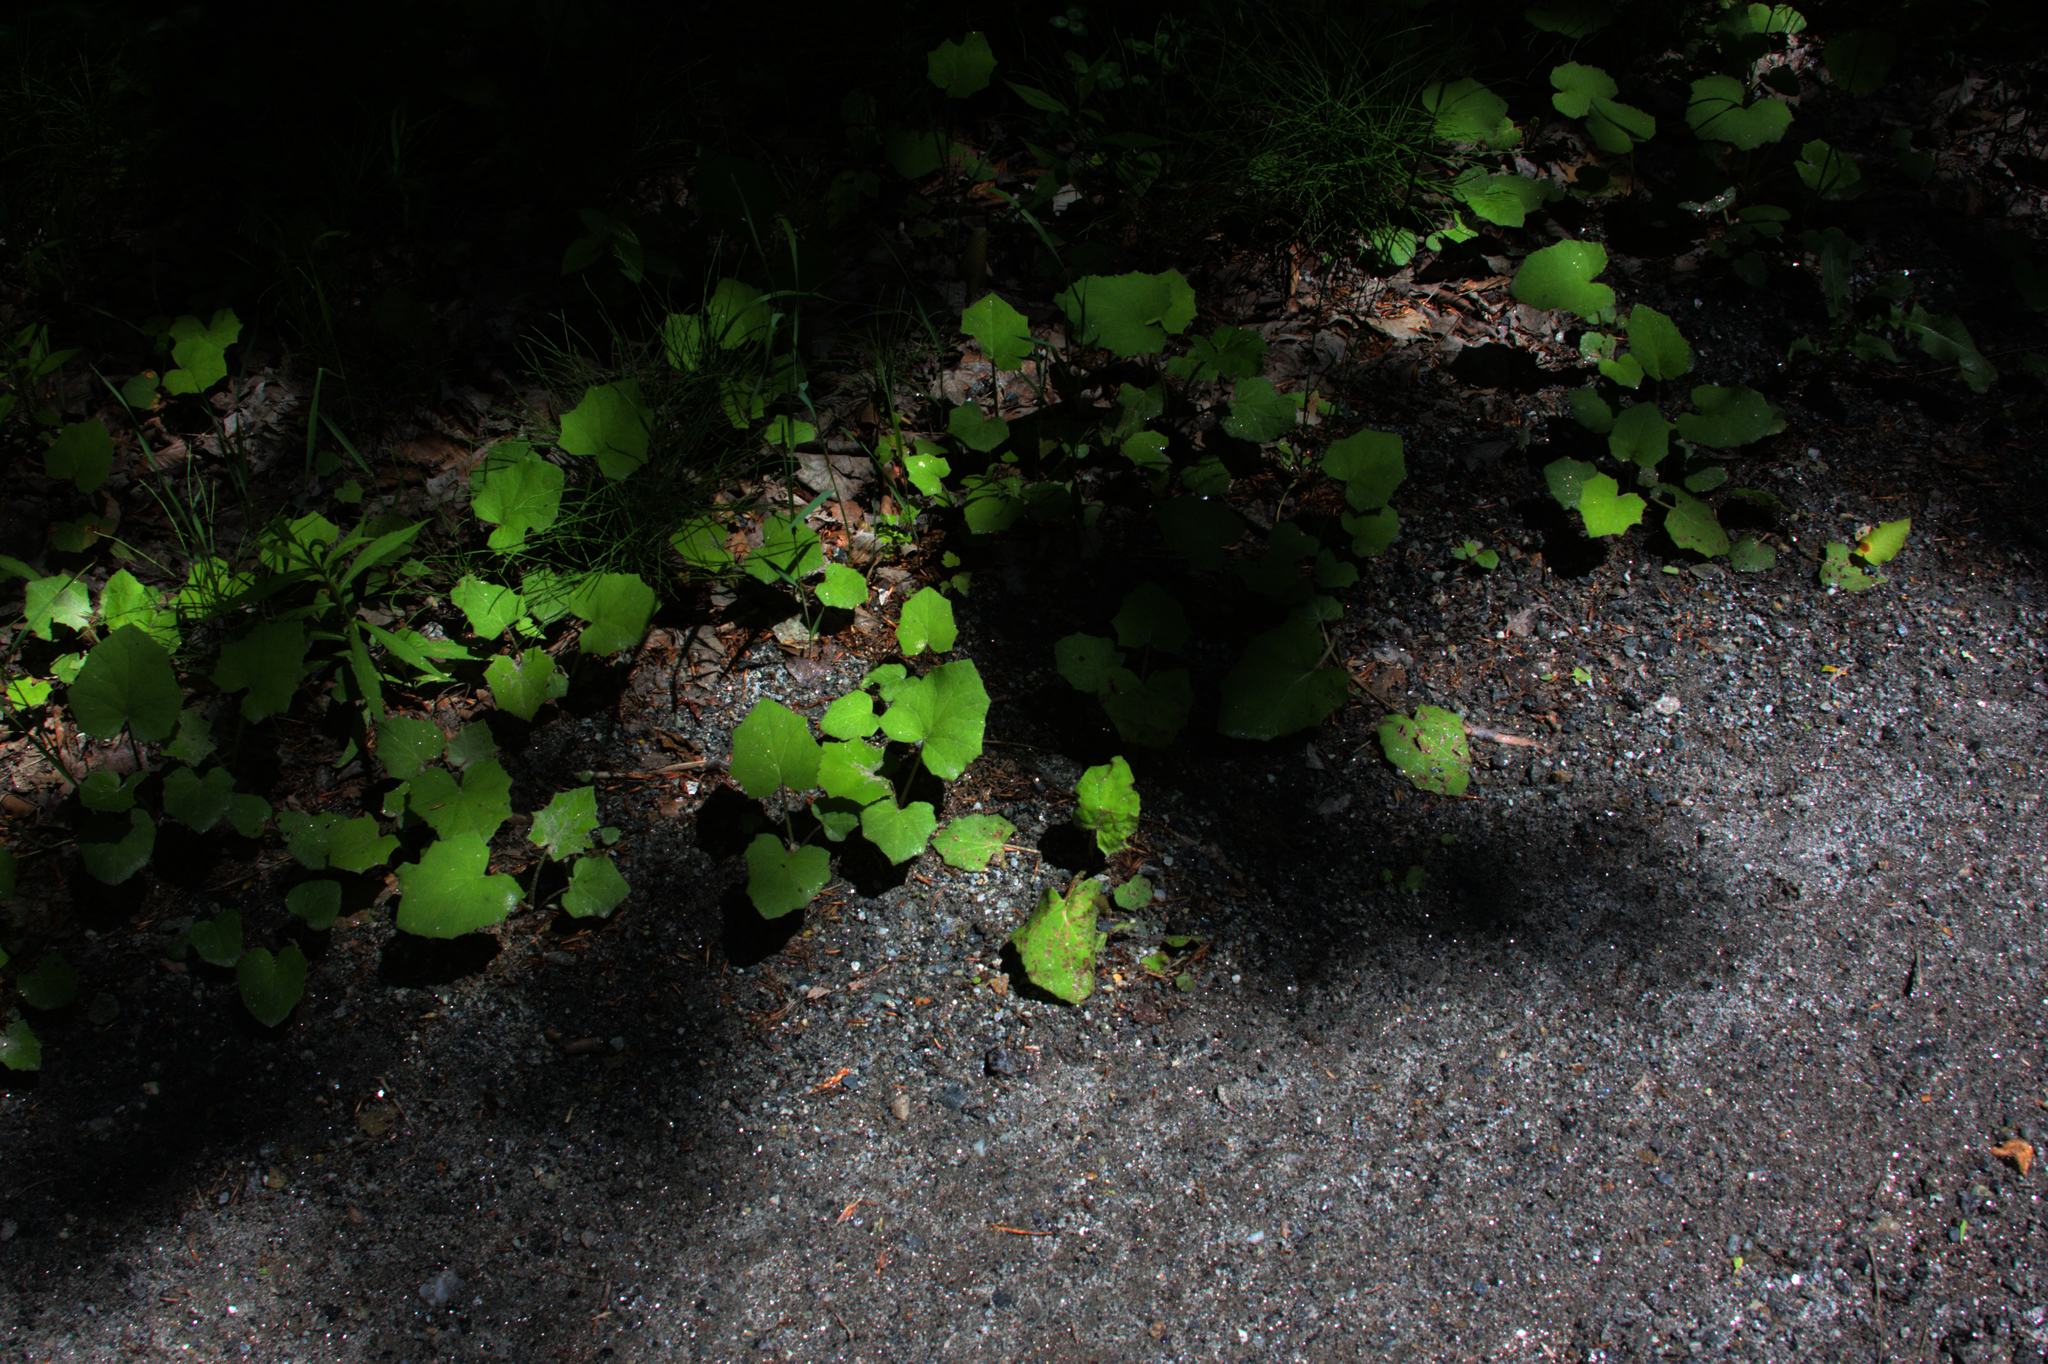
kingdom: Plantae
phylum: Tracheophyta
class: Magnoliopsida
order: Asterales
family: Asteraceae
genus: Tussilago
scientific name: Tussilago farfara
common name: Coltsfoot
